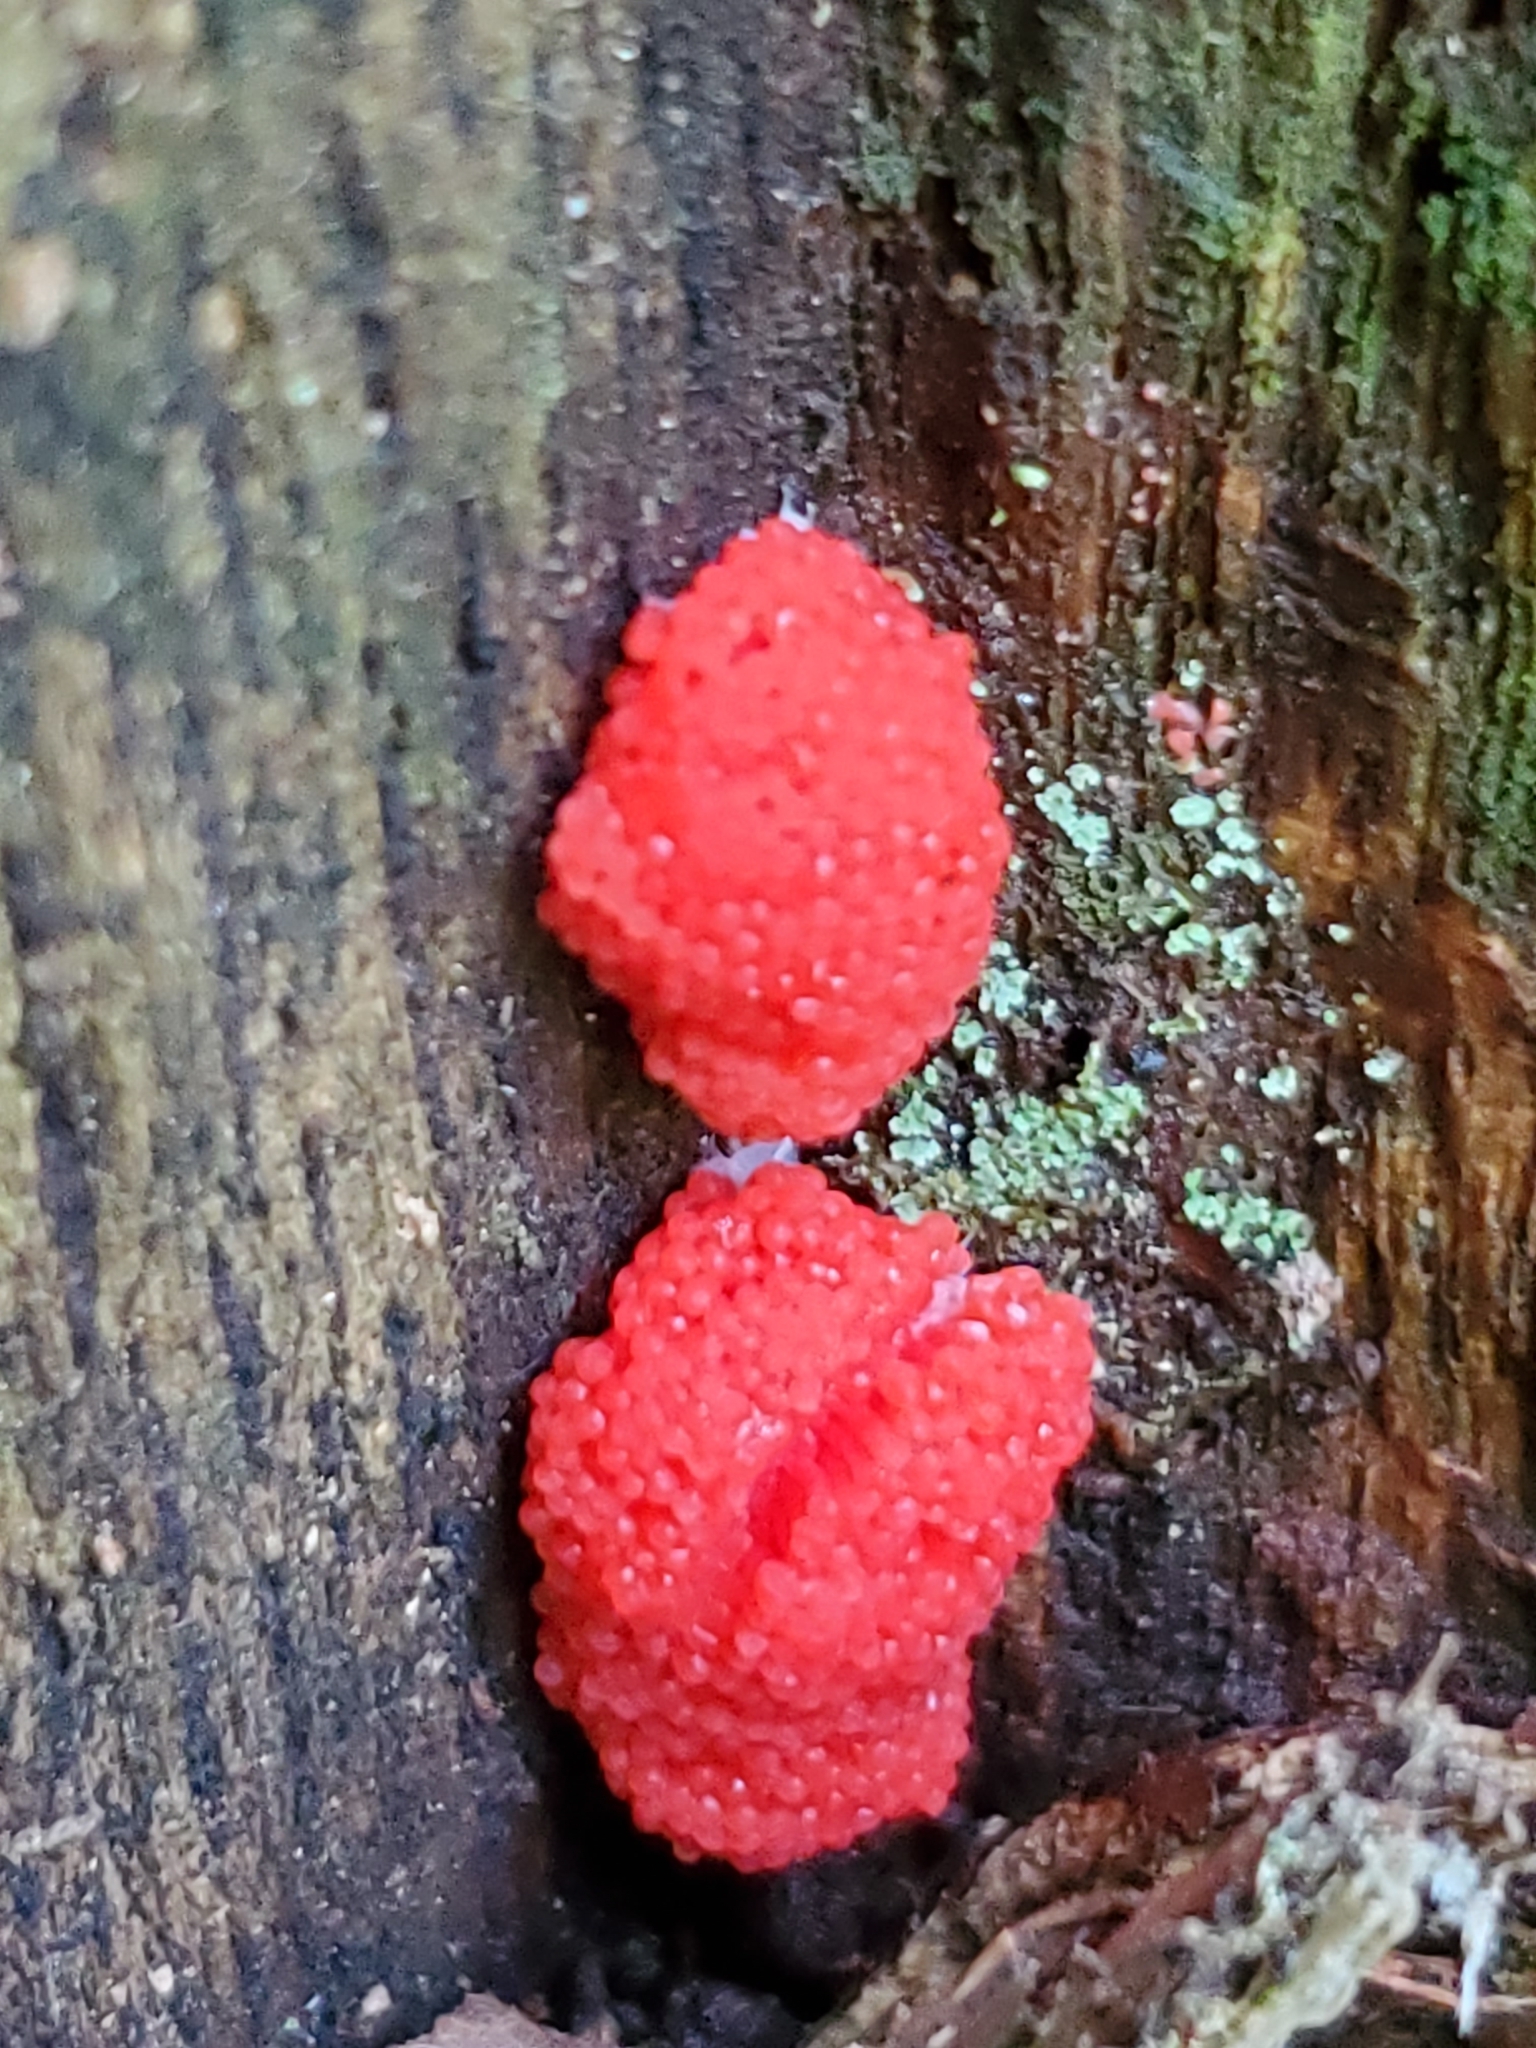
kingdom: Protozoa
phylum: Mycetozoa
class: Myxomycetes
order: Cribrariales
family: Tubiferaceae
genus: Tubifera
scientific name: Tubifera ferruginosa
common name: Red raspberry slime mold
